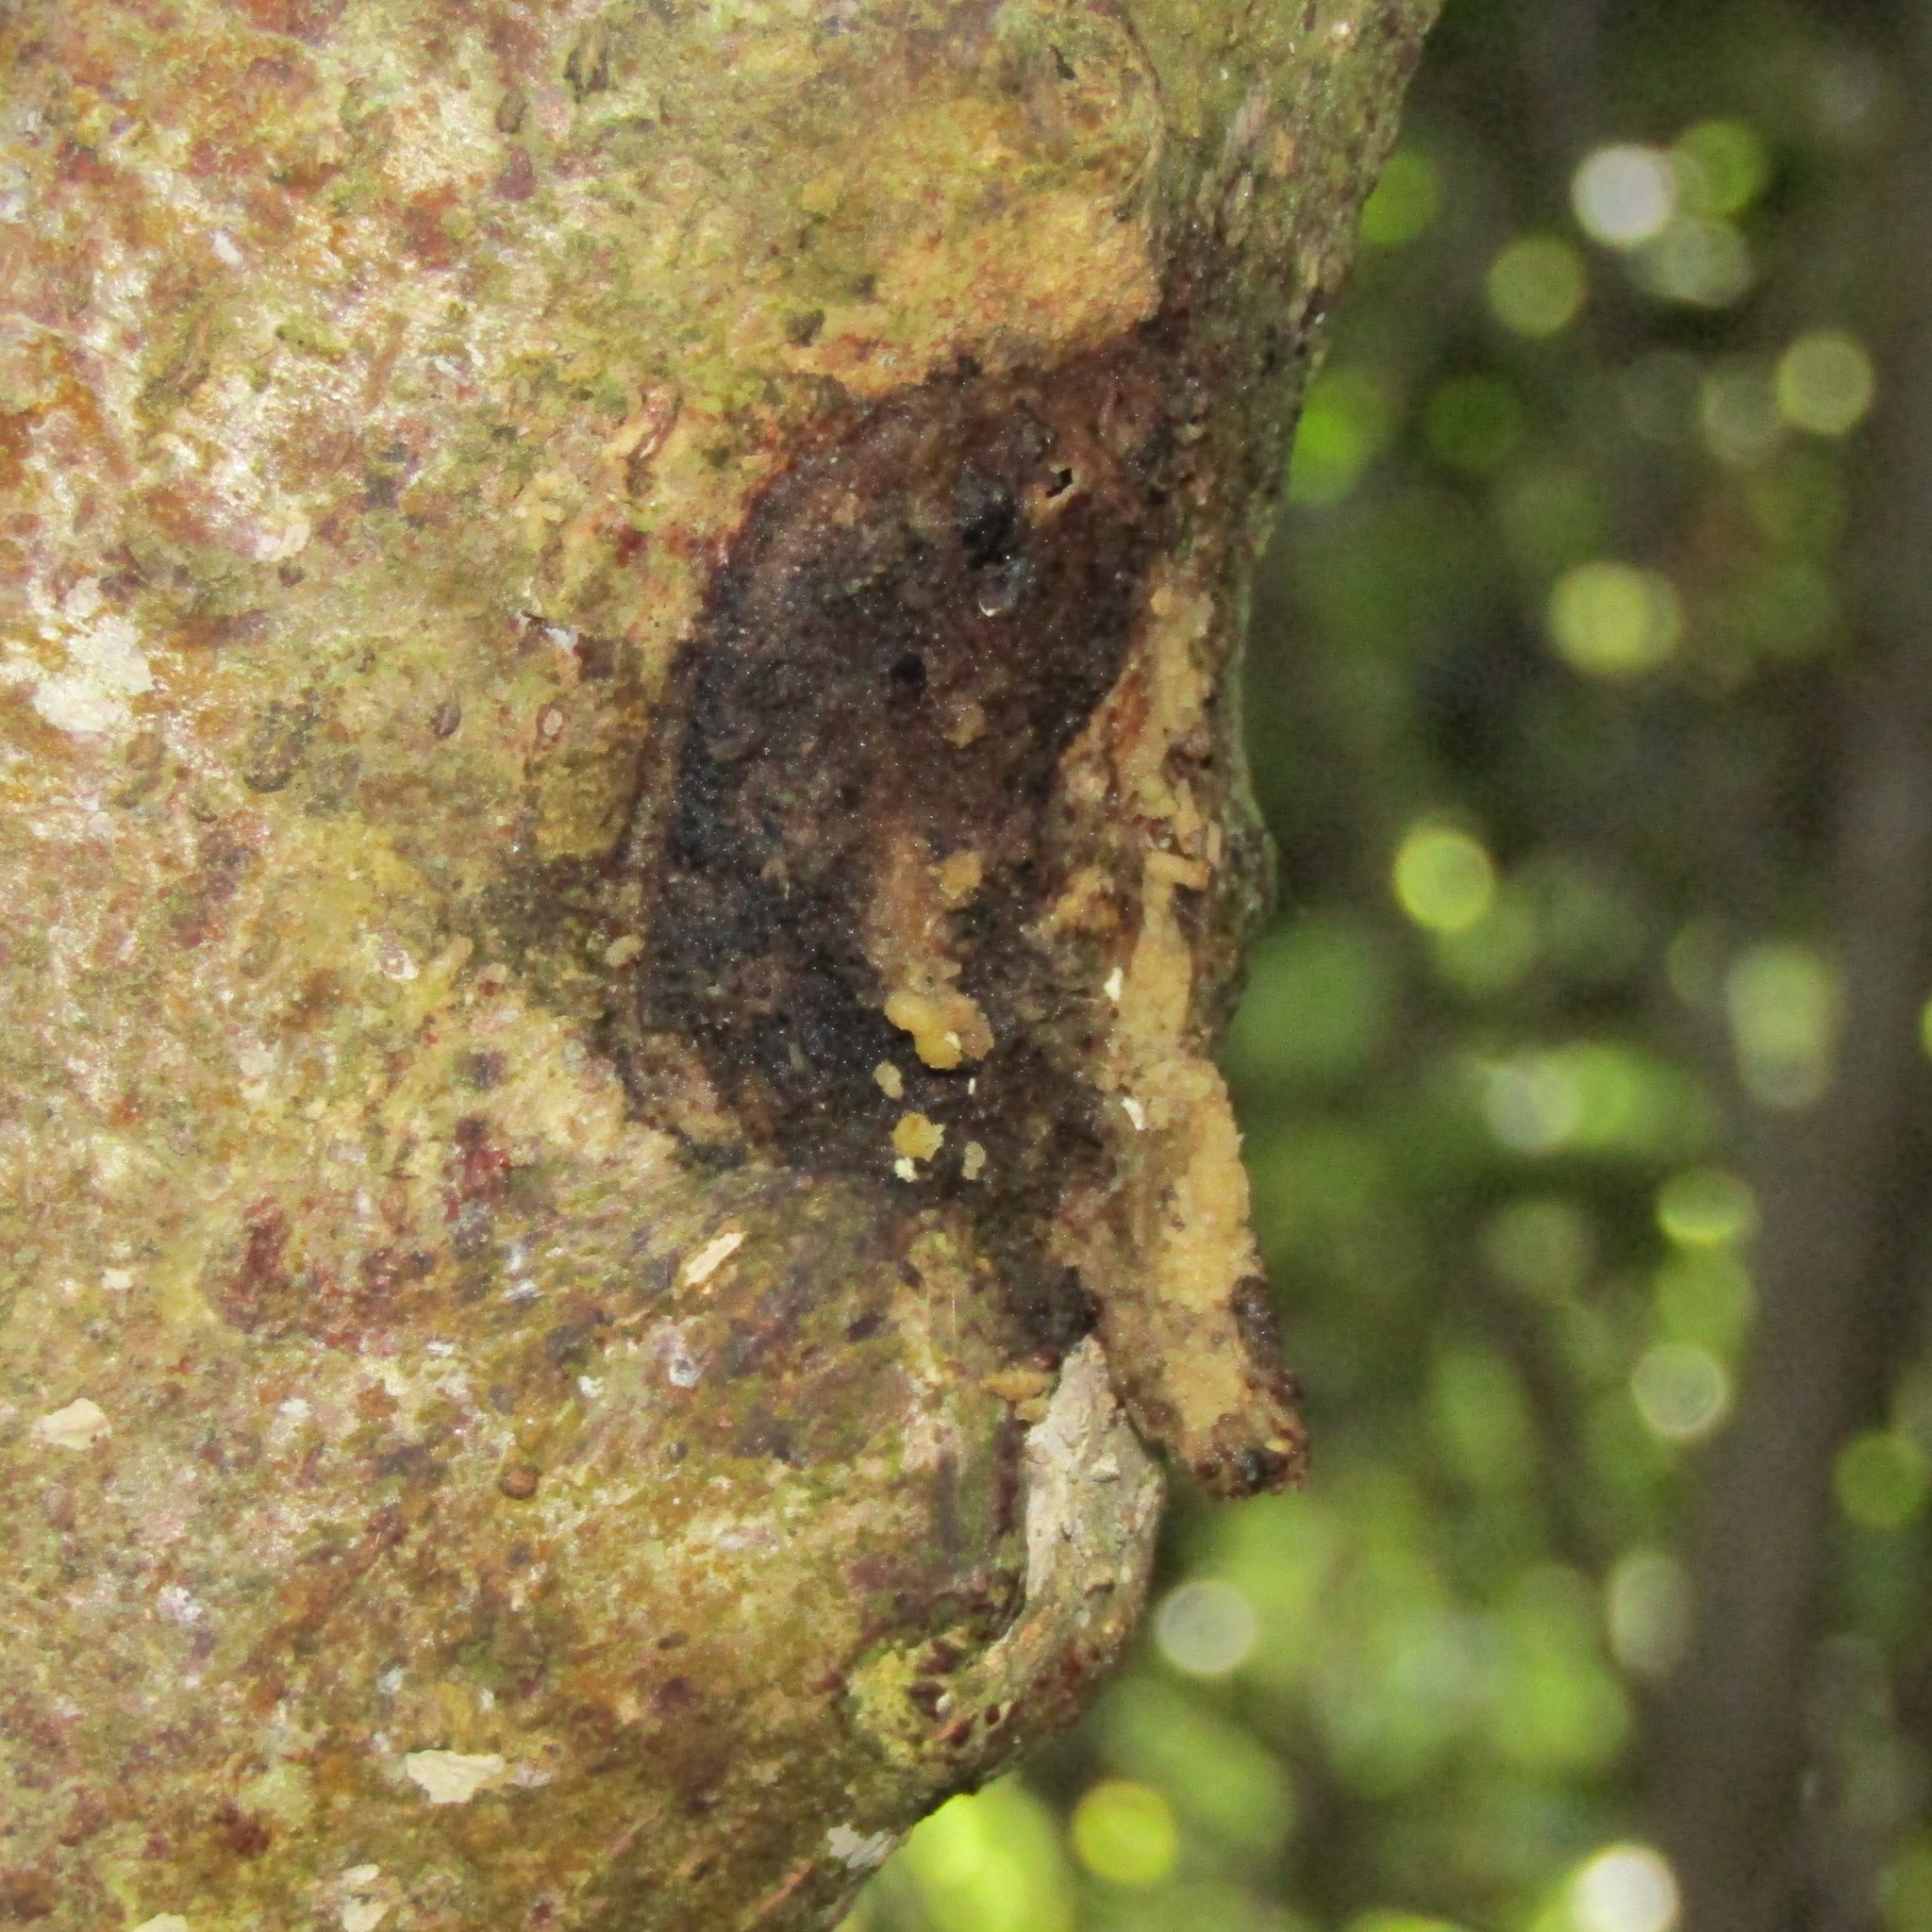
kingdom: Animalia
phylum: Arthropoda
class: Insecta
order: Lepidoptera
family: Hepialidae
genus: Aenetus
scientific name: Aenetus virescens
